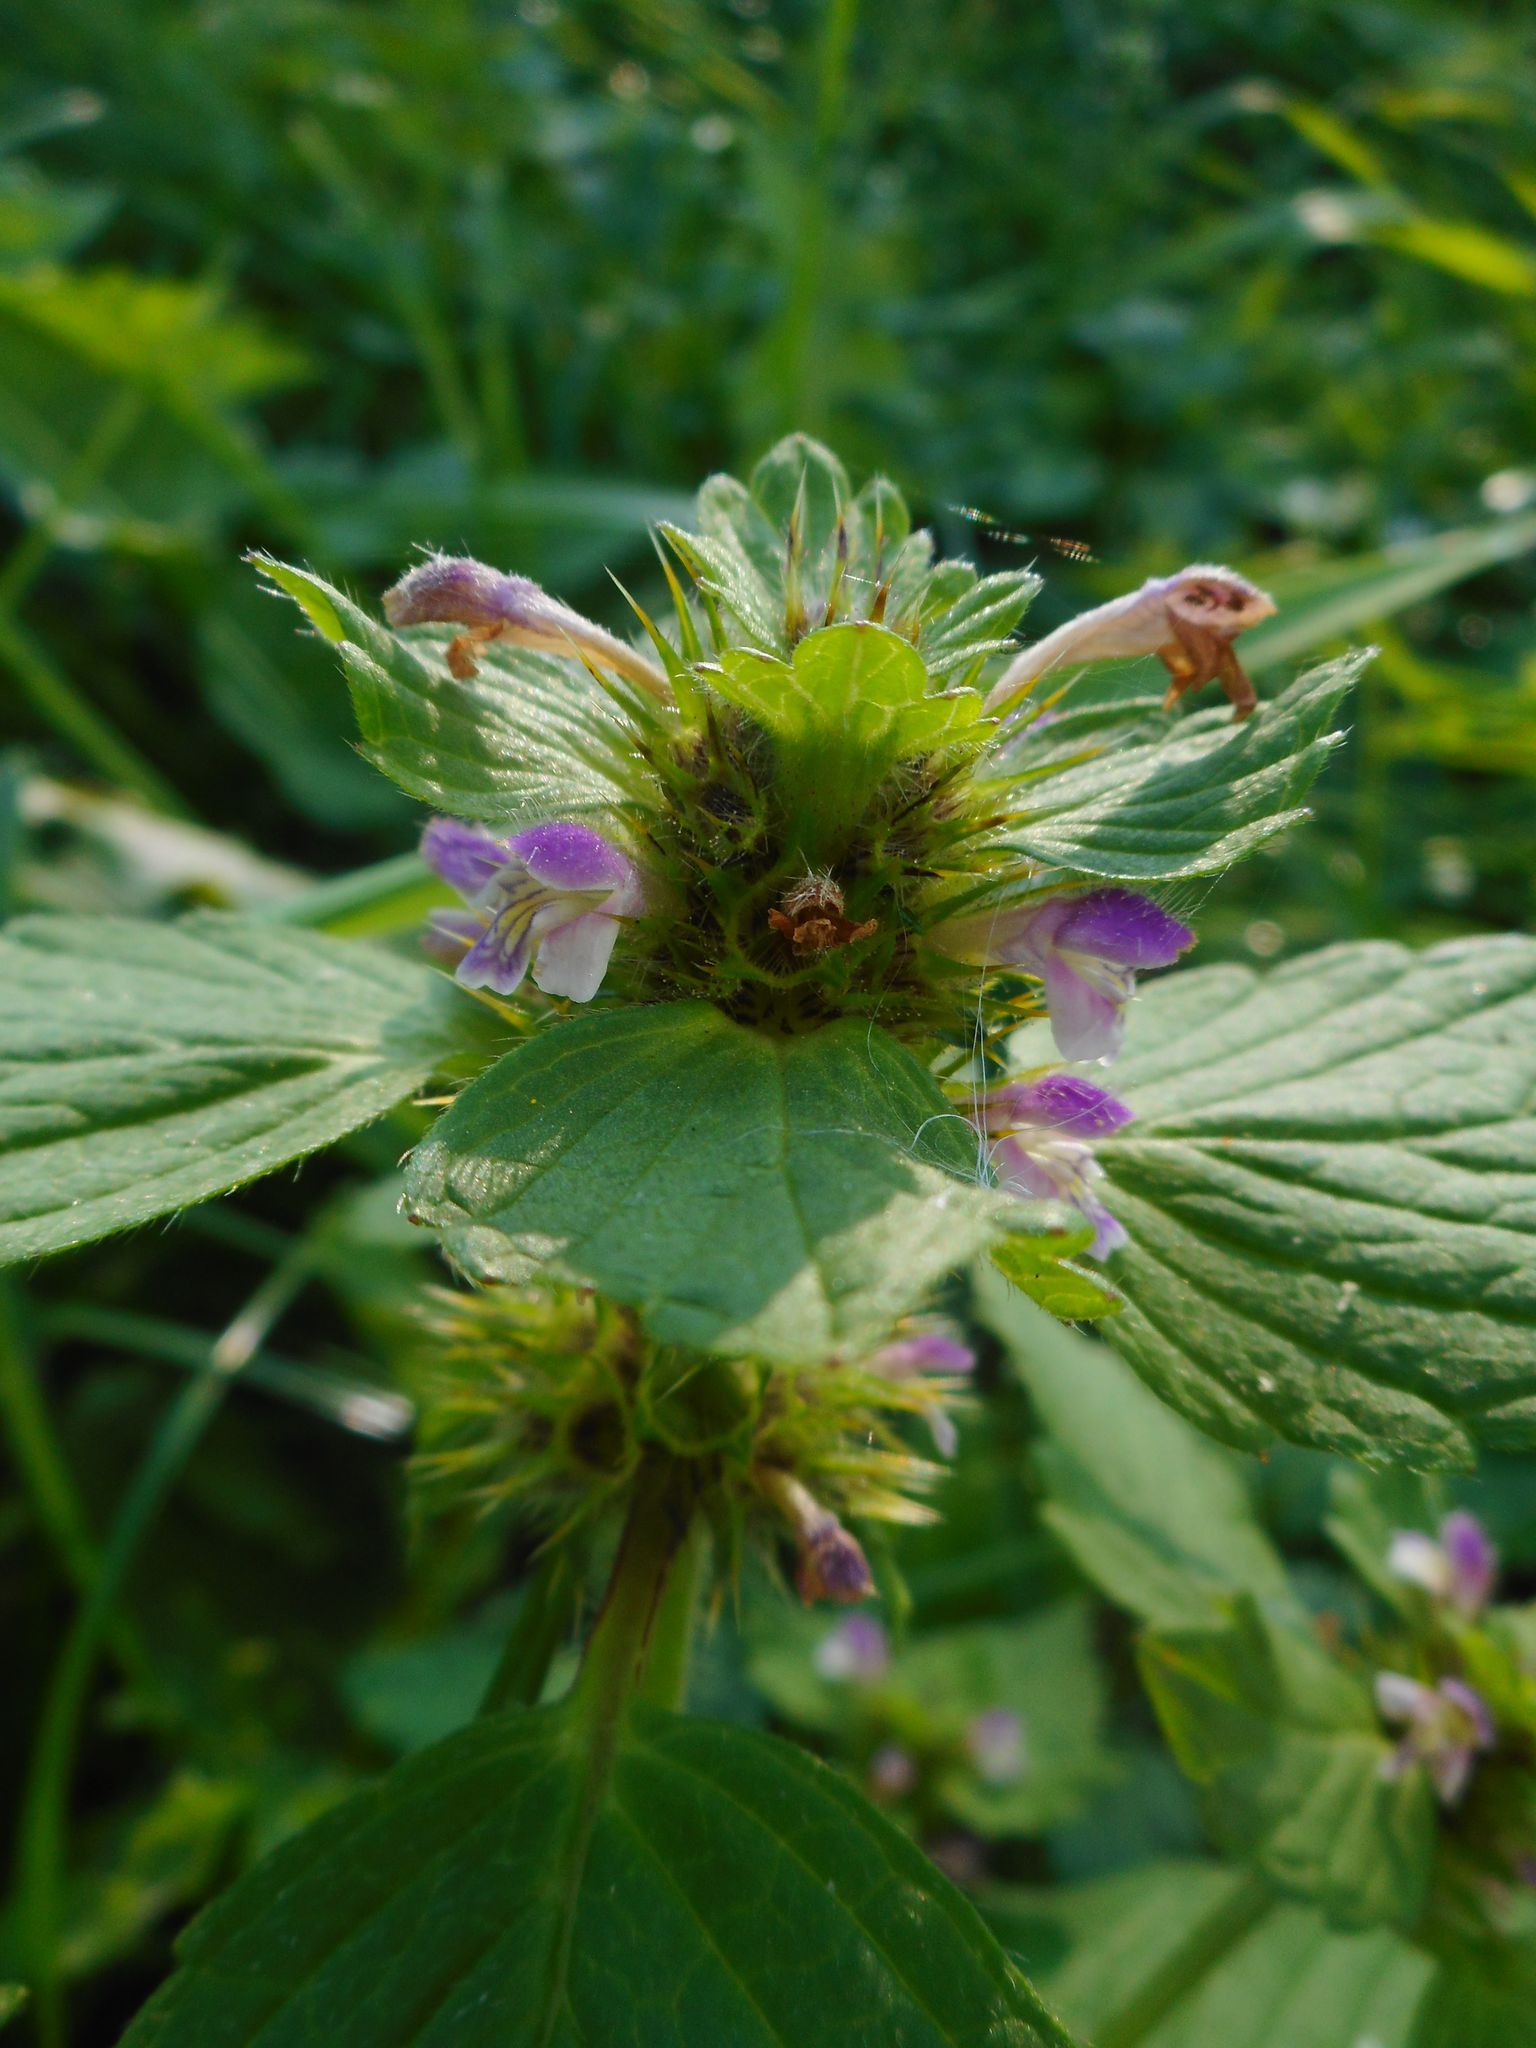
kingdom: Plantae
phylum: Tracheophyta
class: Magnoliopsida
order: Lamiales
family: Lamiaceae
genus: Galeopsis
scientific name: Galeopsis bifida
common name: Bifid hemp-nettle
